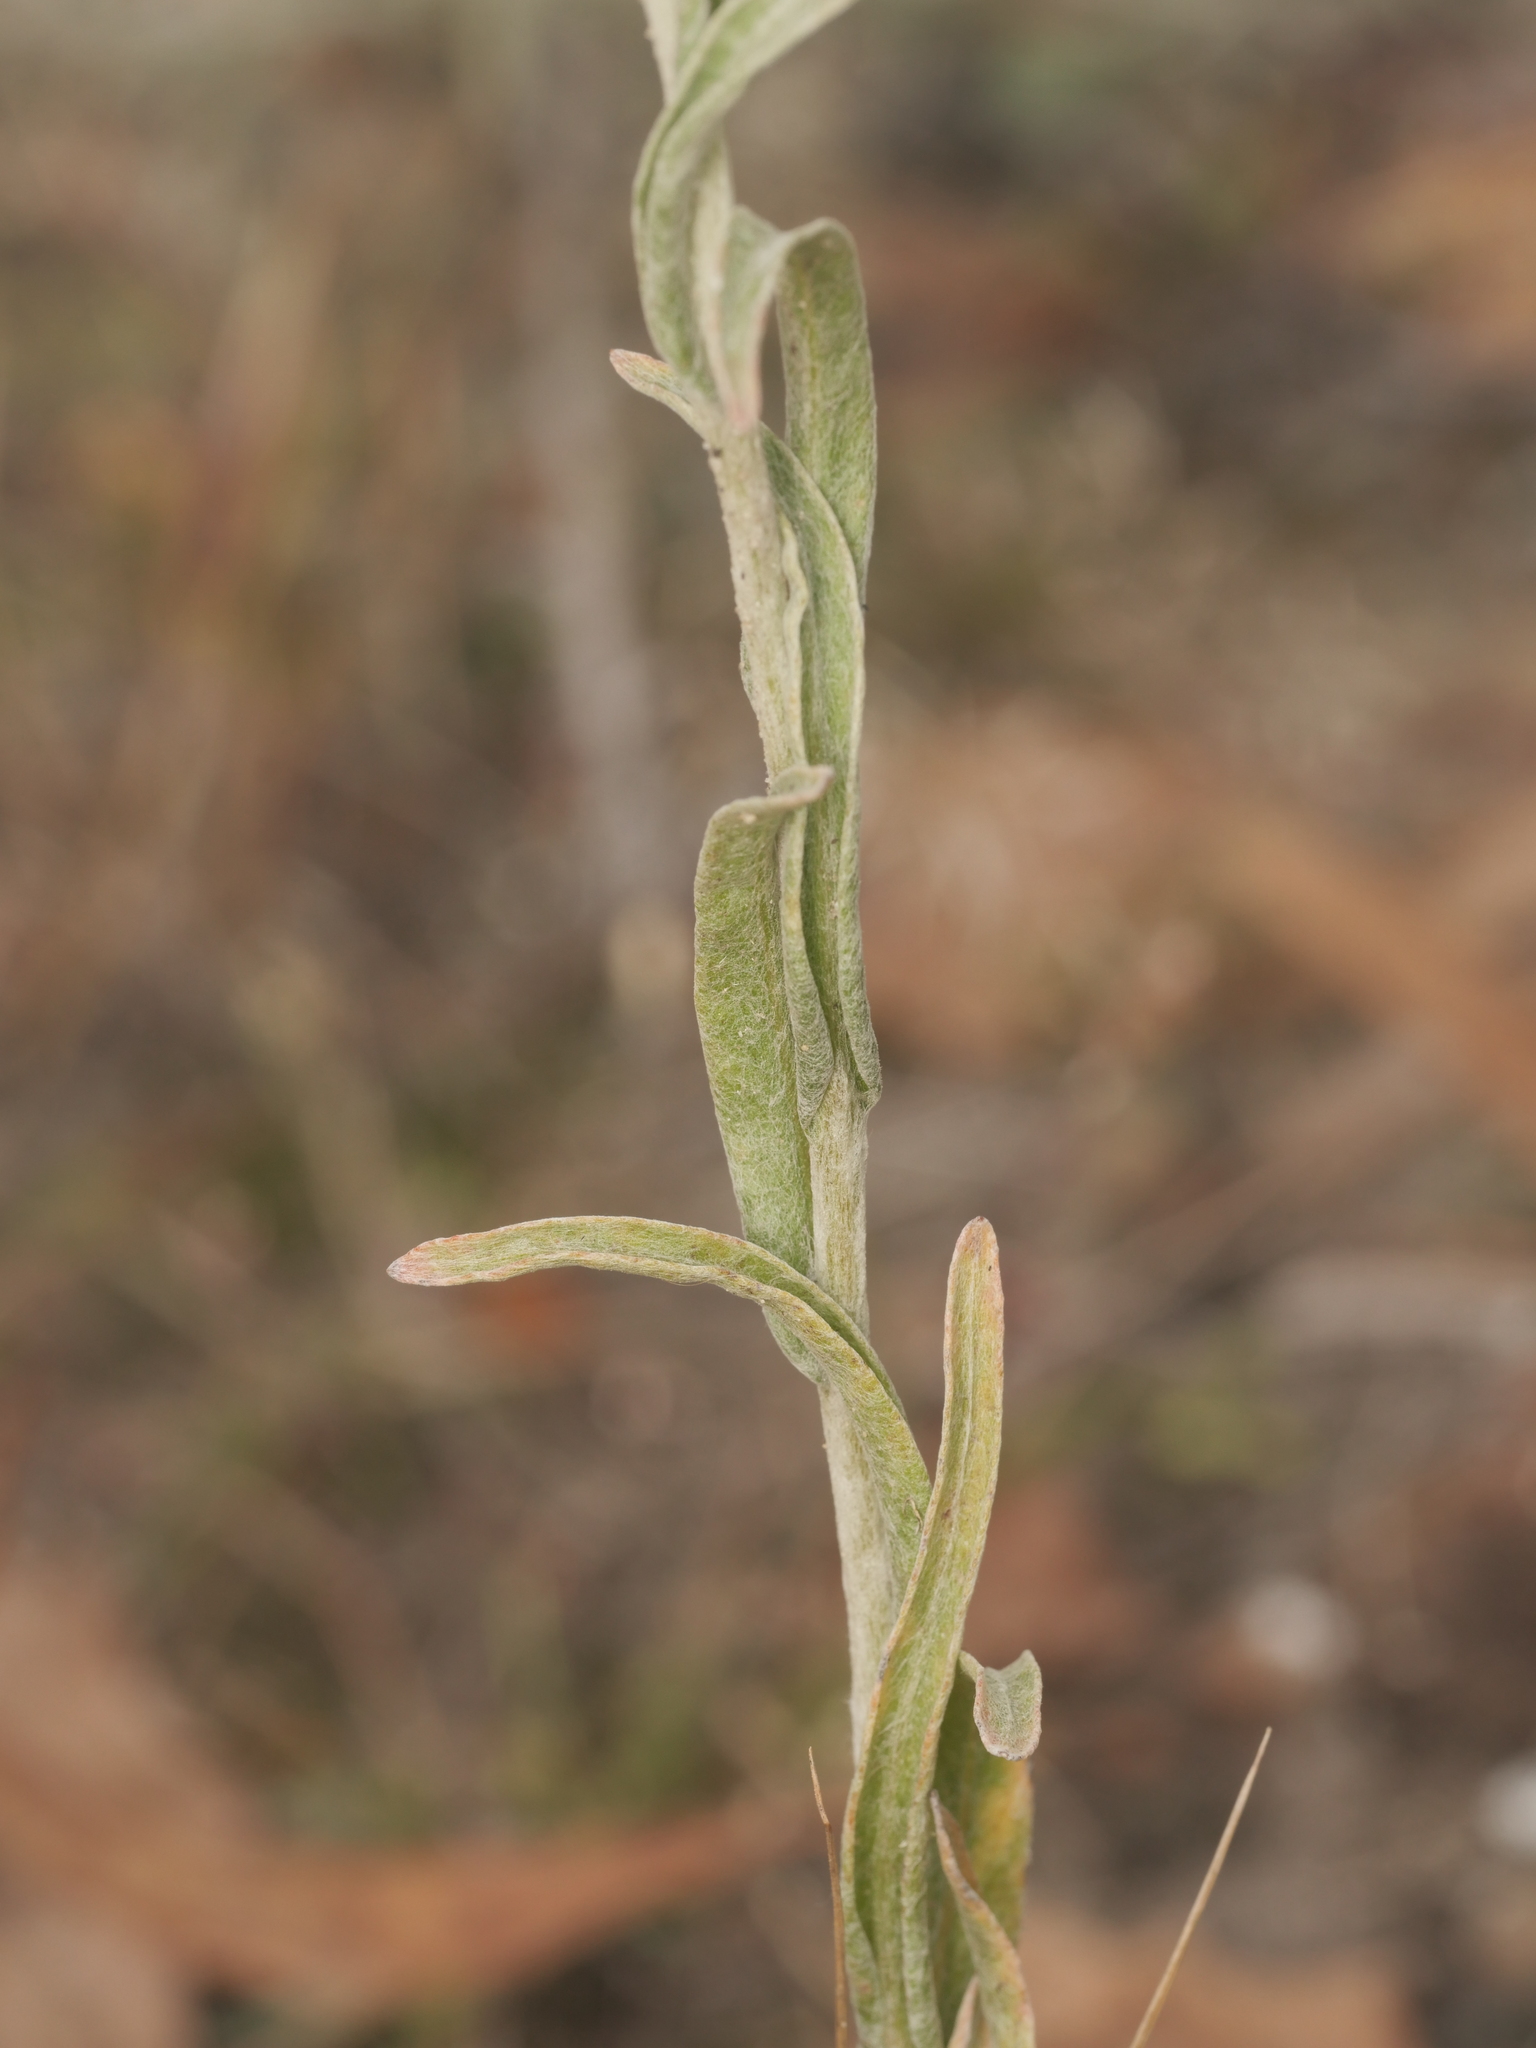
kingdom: Plantae
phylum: Tracheophyta
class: Magnoliopsida
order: Asterales
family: Asteraceae
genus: Helichrysum
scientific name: Helichrysum arenarium
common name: Strawflower
